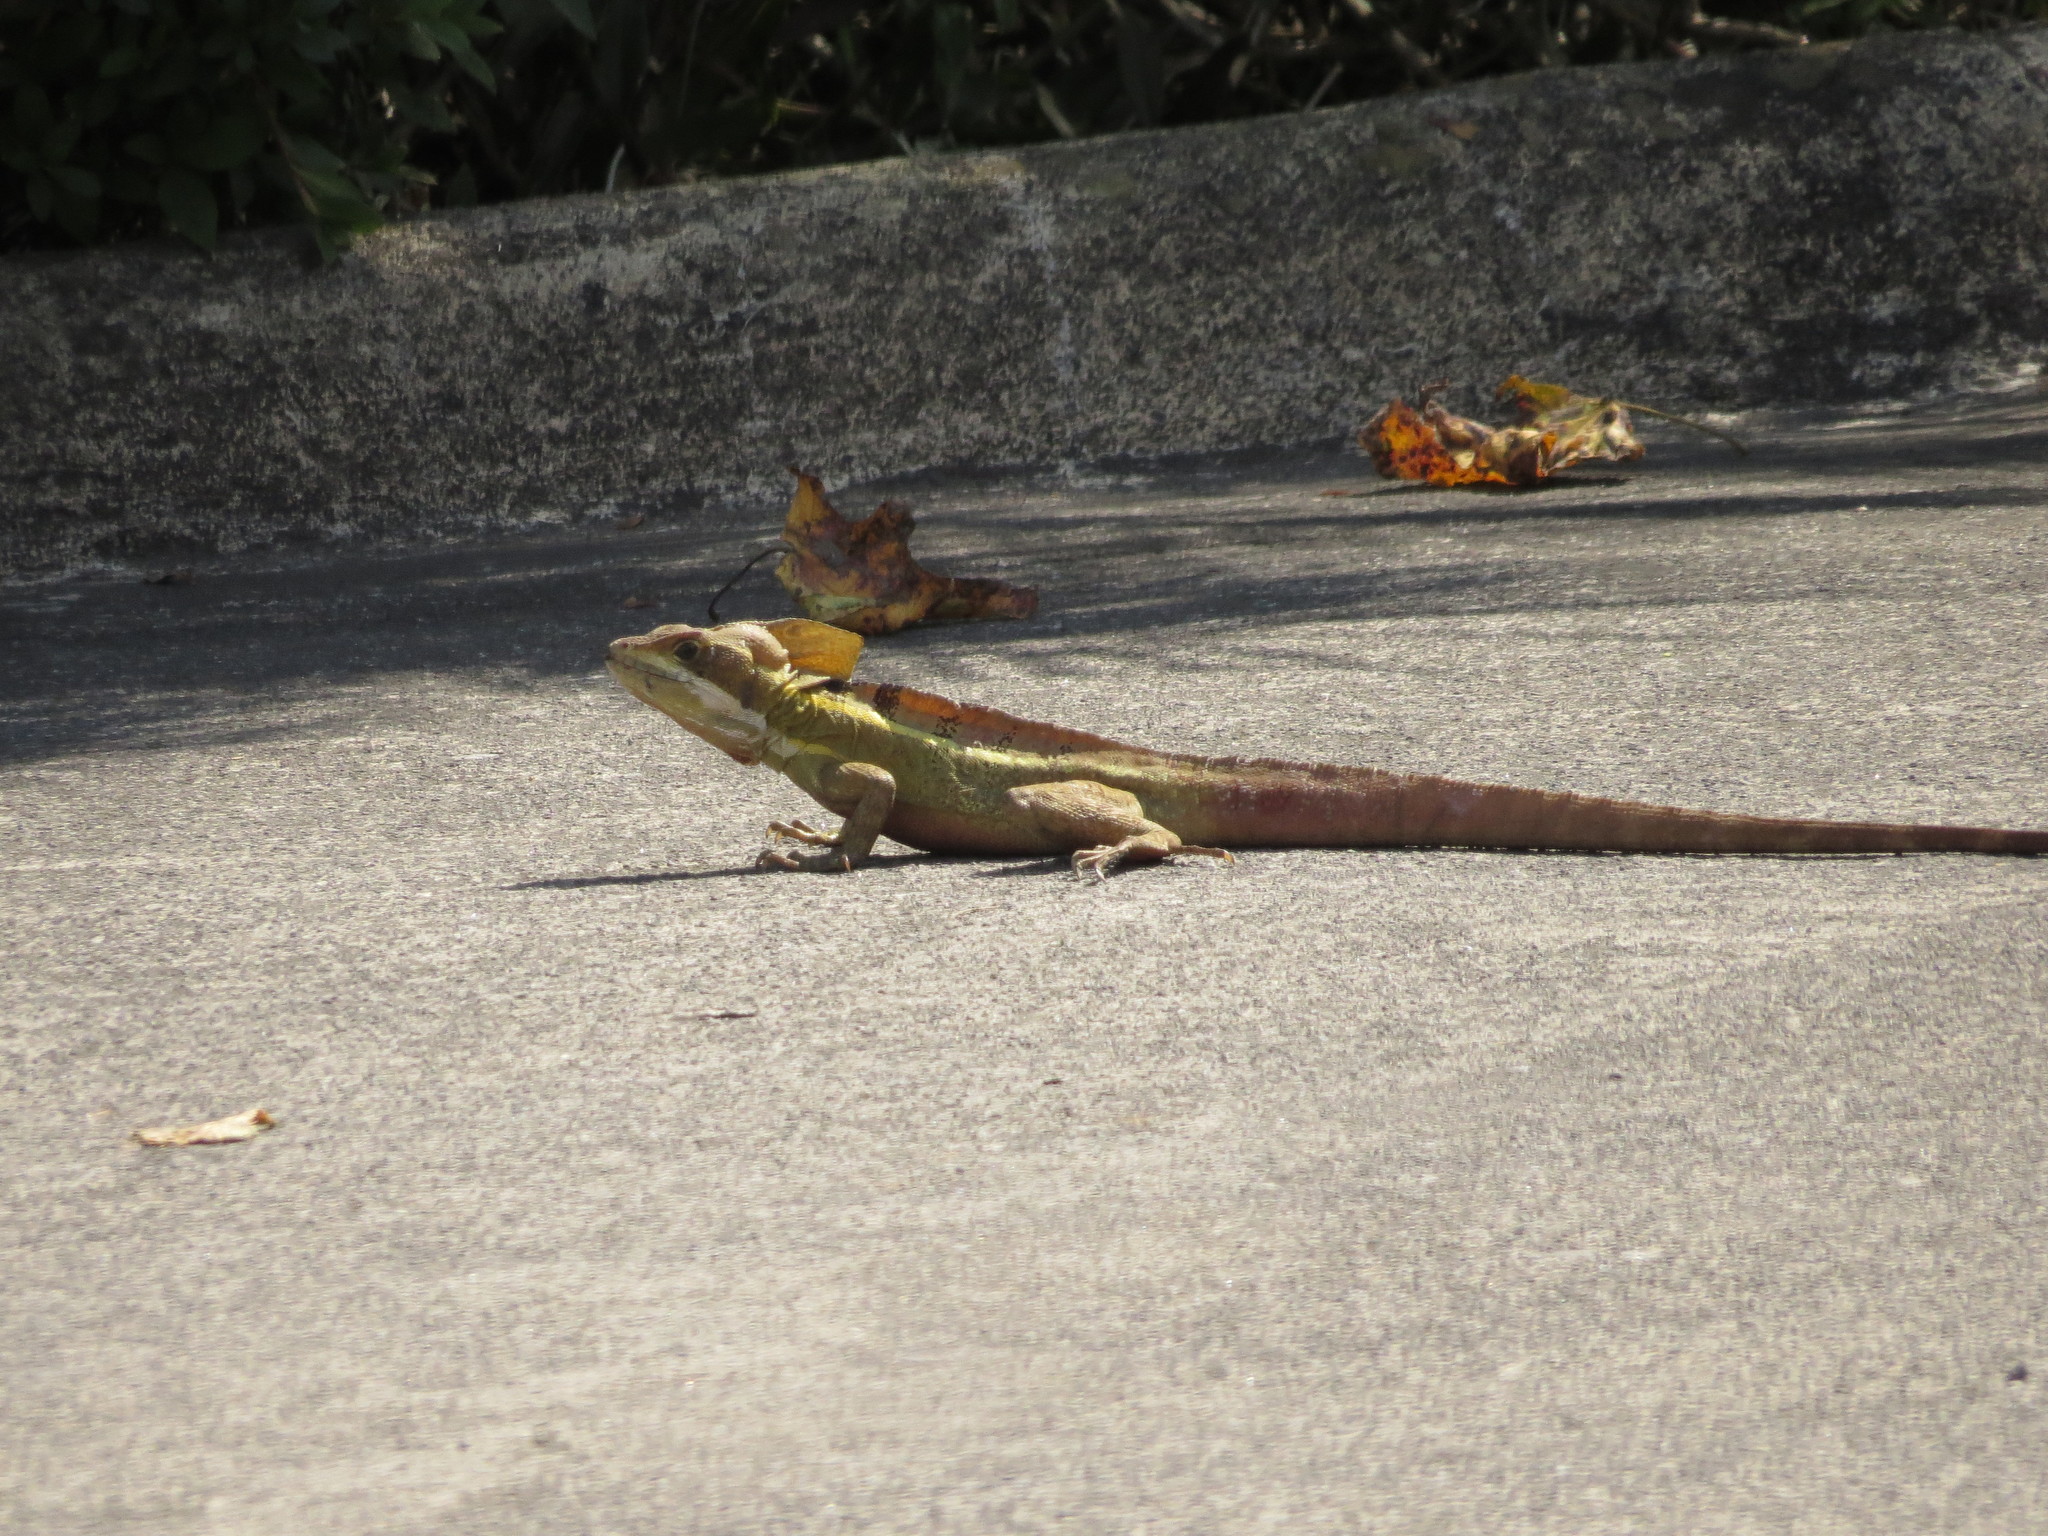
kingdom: Animalia
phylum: Chordata
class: Squamata
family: Corytophanidae
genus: Basiliscus
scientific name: Basiliscus vittatus
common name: Brown basilisk
